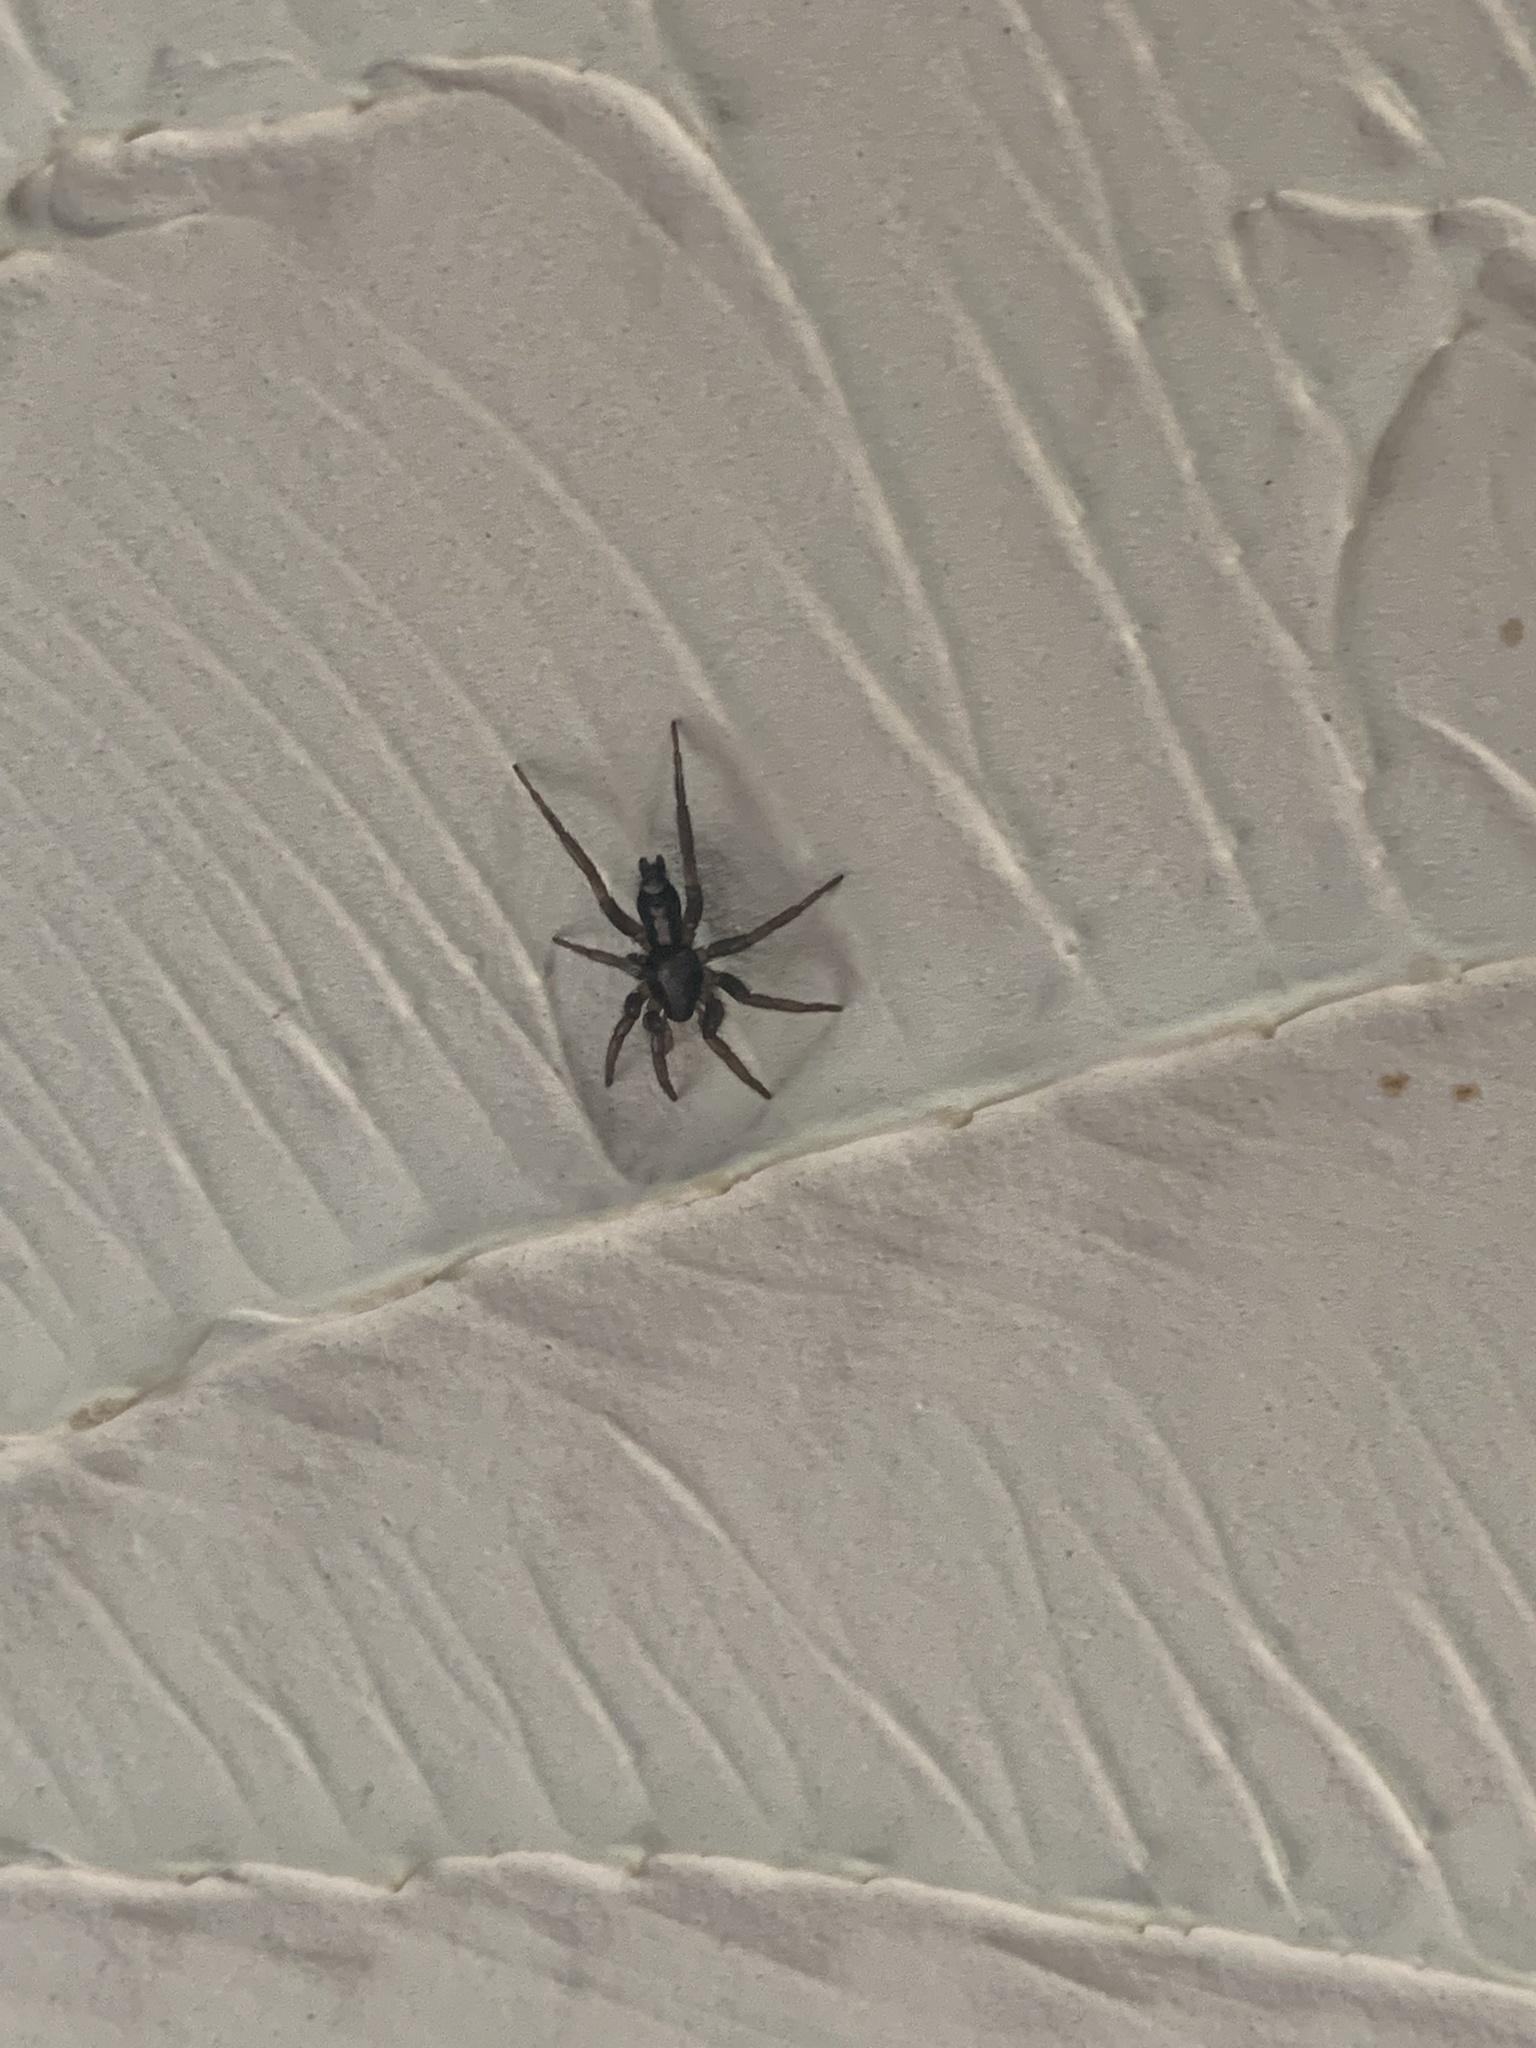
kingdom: Animalia
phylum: Arthropoda
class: Arachnida
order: Araneae
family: Gnaphosidae
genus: Herpyllus
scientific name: Herpyllus ecclesiasticus
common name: Eastern parson spider
